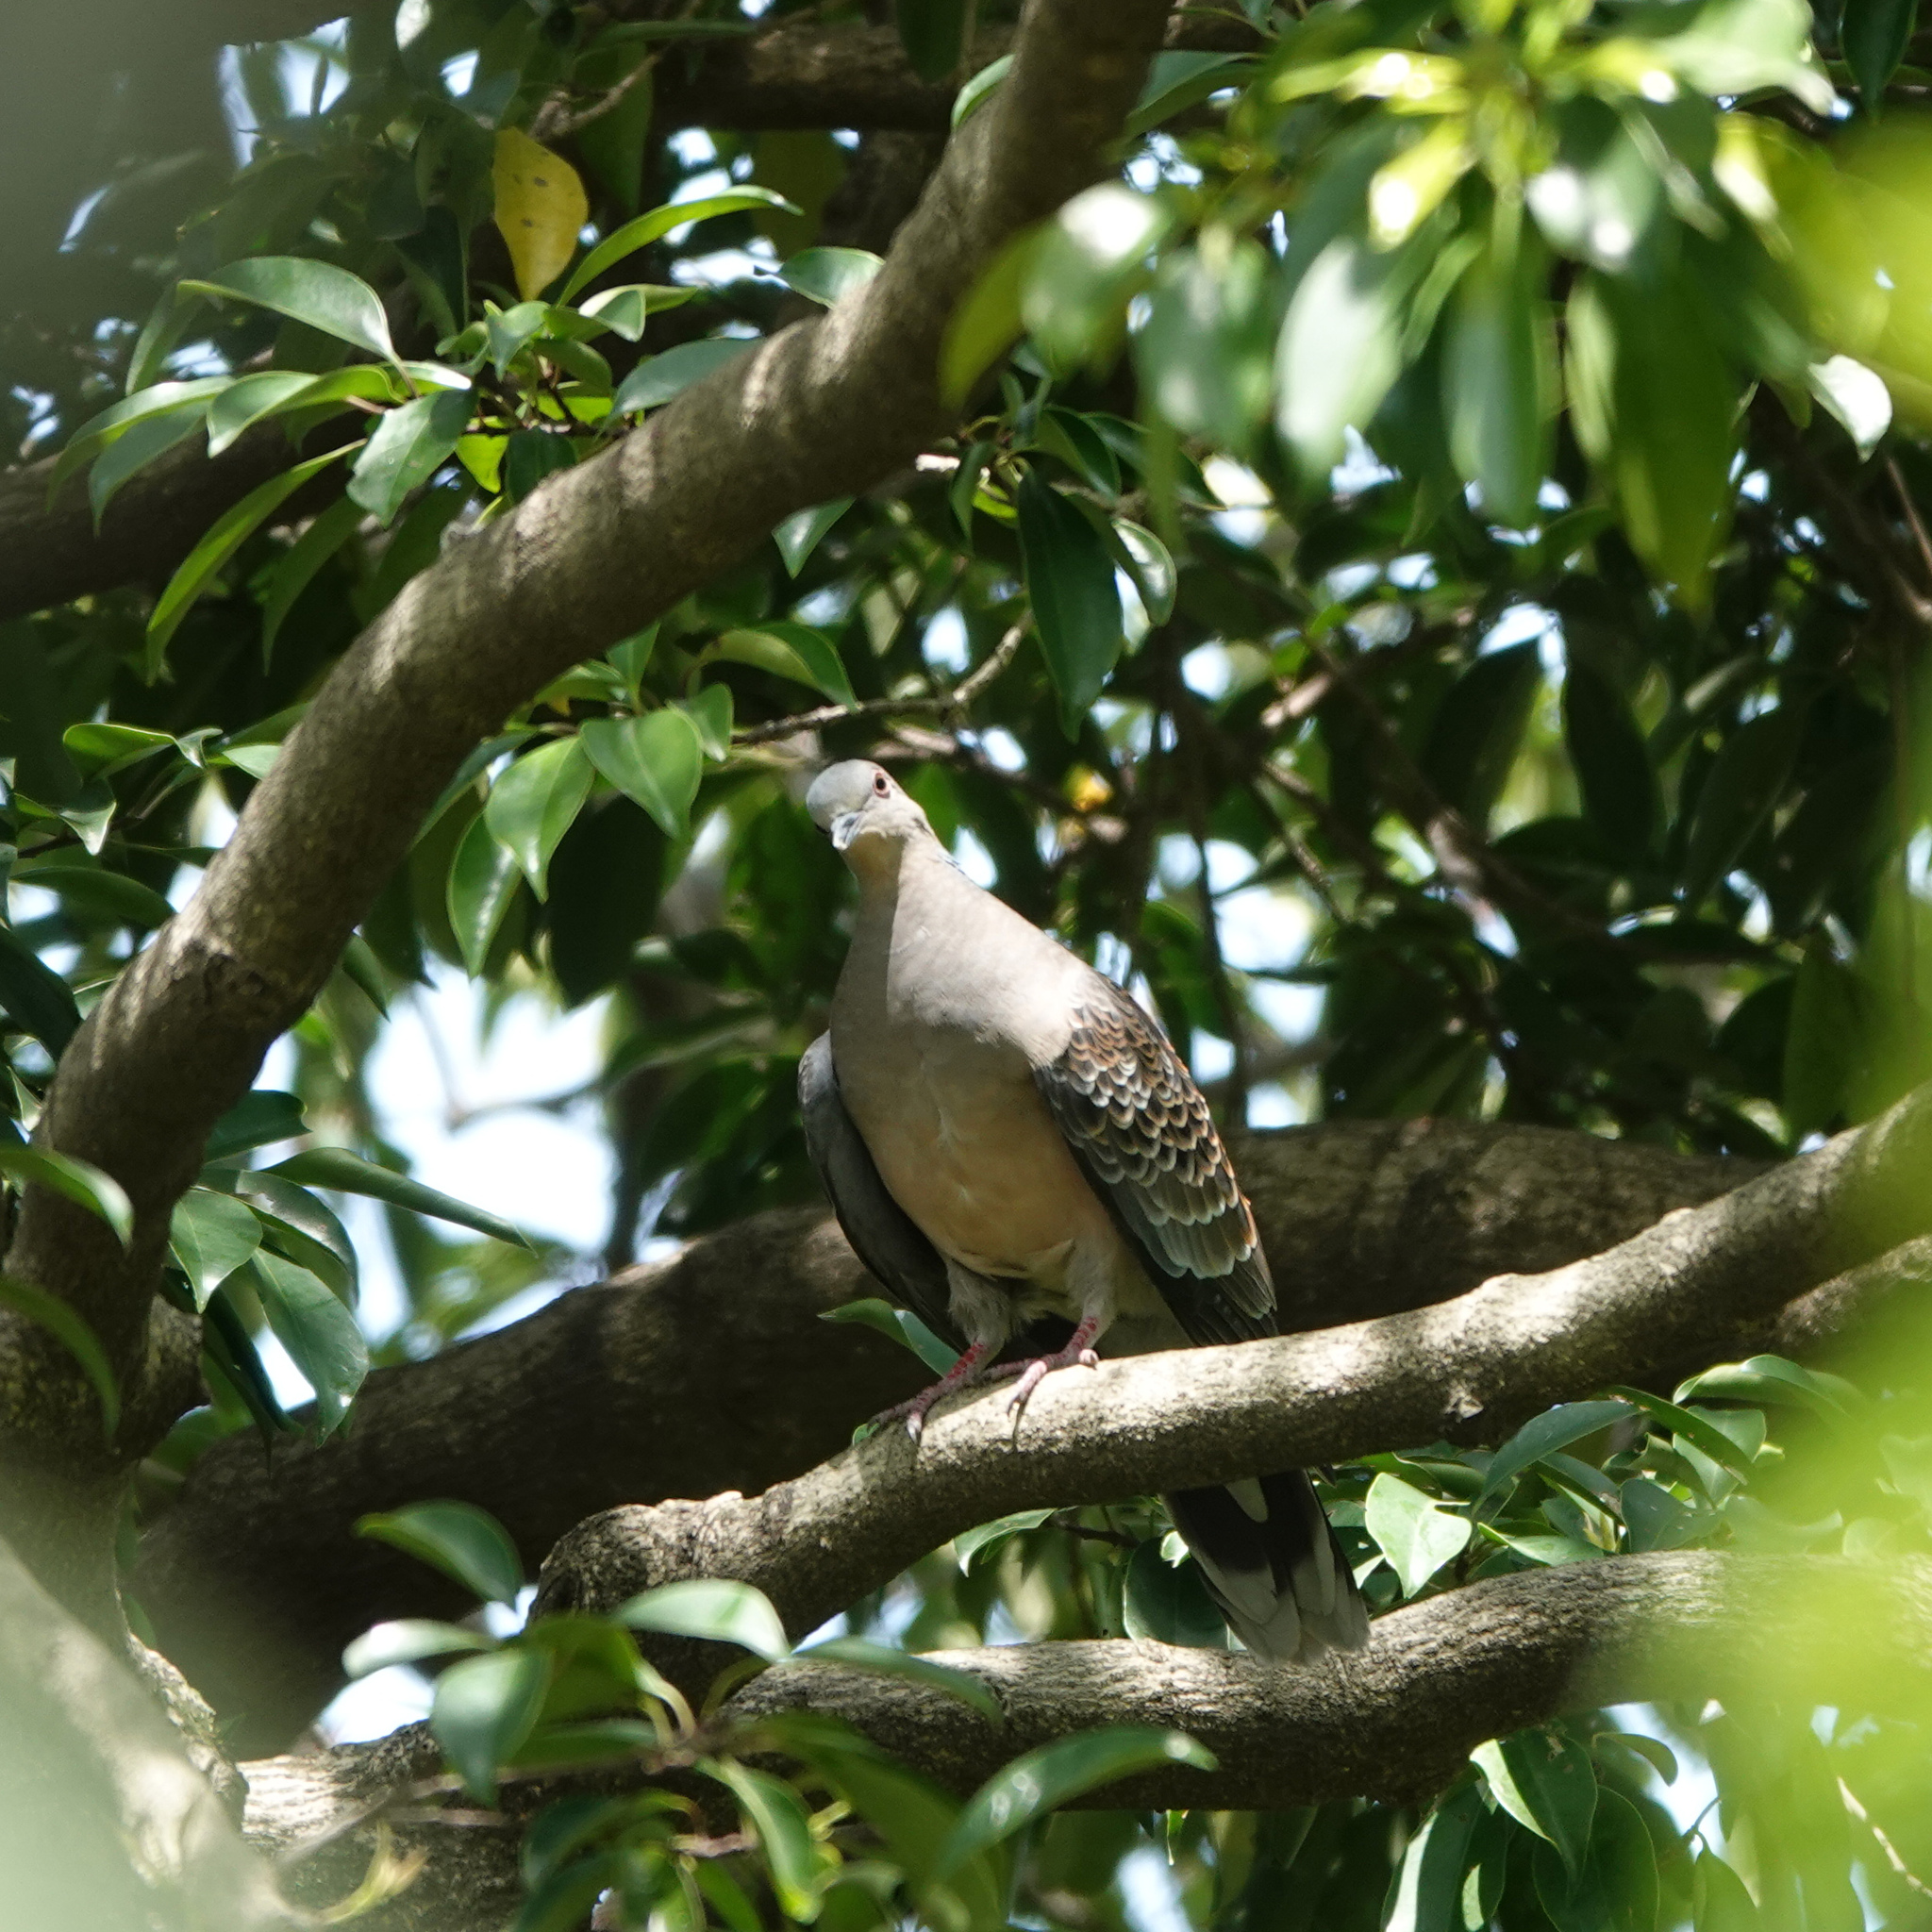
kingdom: Animalia
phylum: Chordata
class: Aves
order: Columbiformes
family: Columbidae
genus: Streptopelia
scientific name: Streptopelia orientalis
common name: Oriental turtle dove
